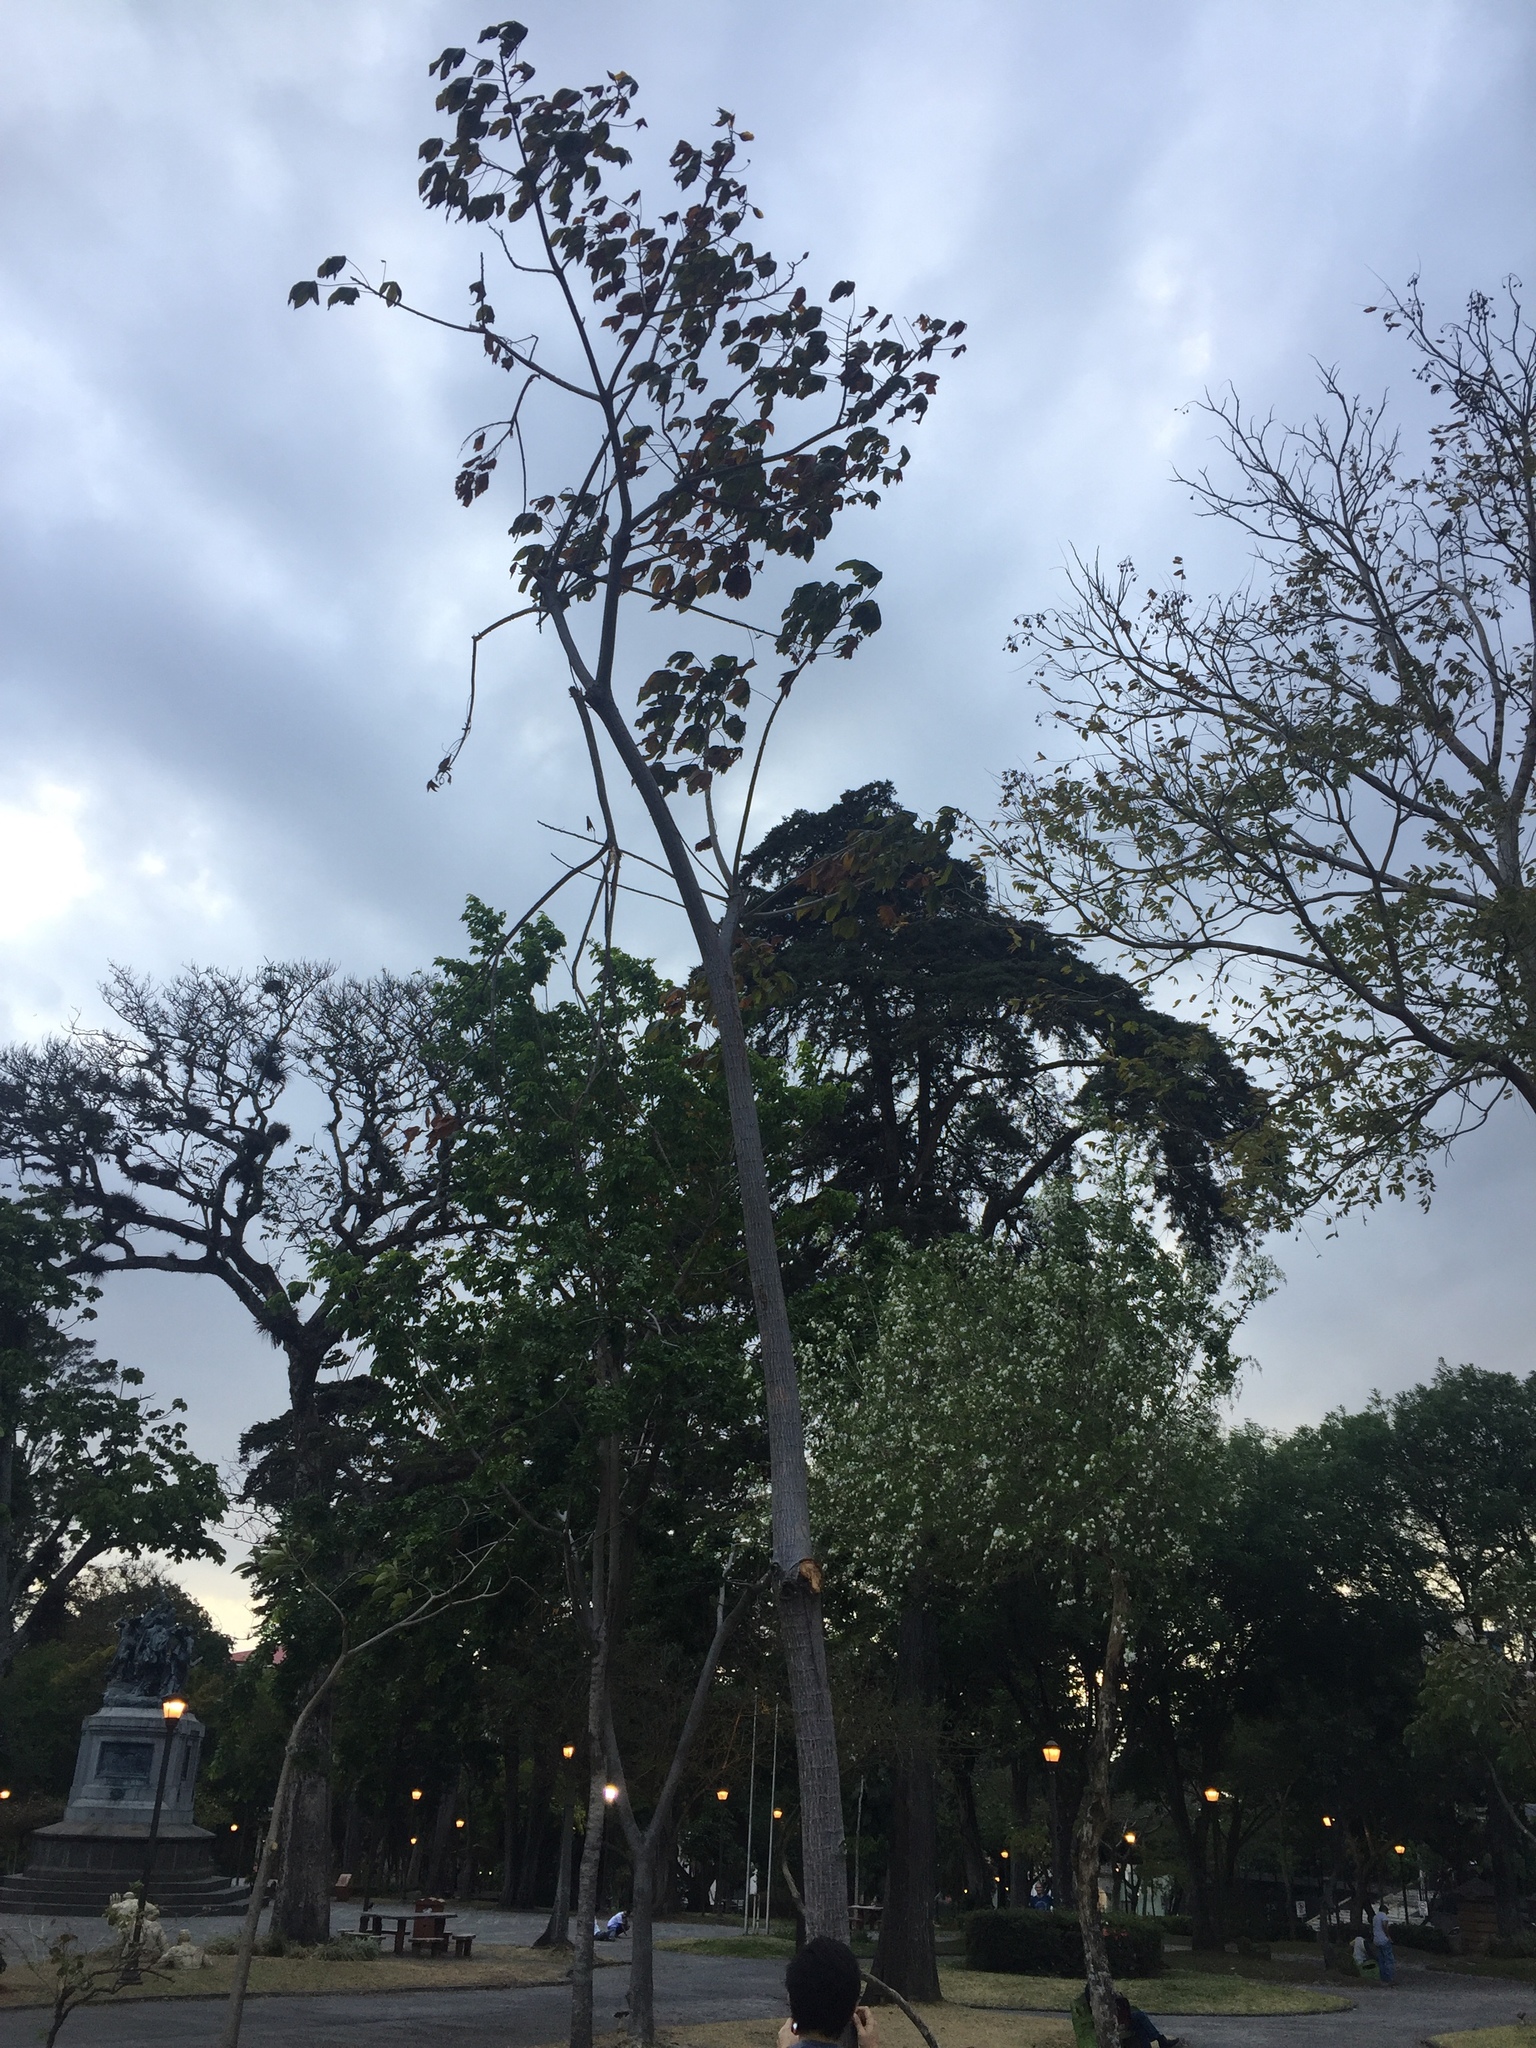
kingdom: Plantae
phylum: Tracheophyta
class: Magnoliopsida
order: Malvales
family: Cochlospermaceae
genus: Cochlospermum
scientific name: Cochlospermum vitifolium
